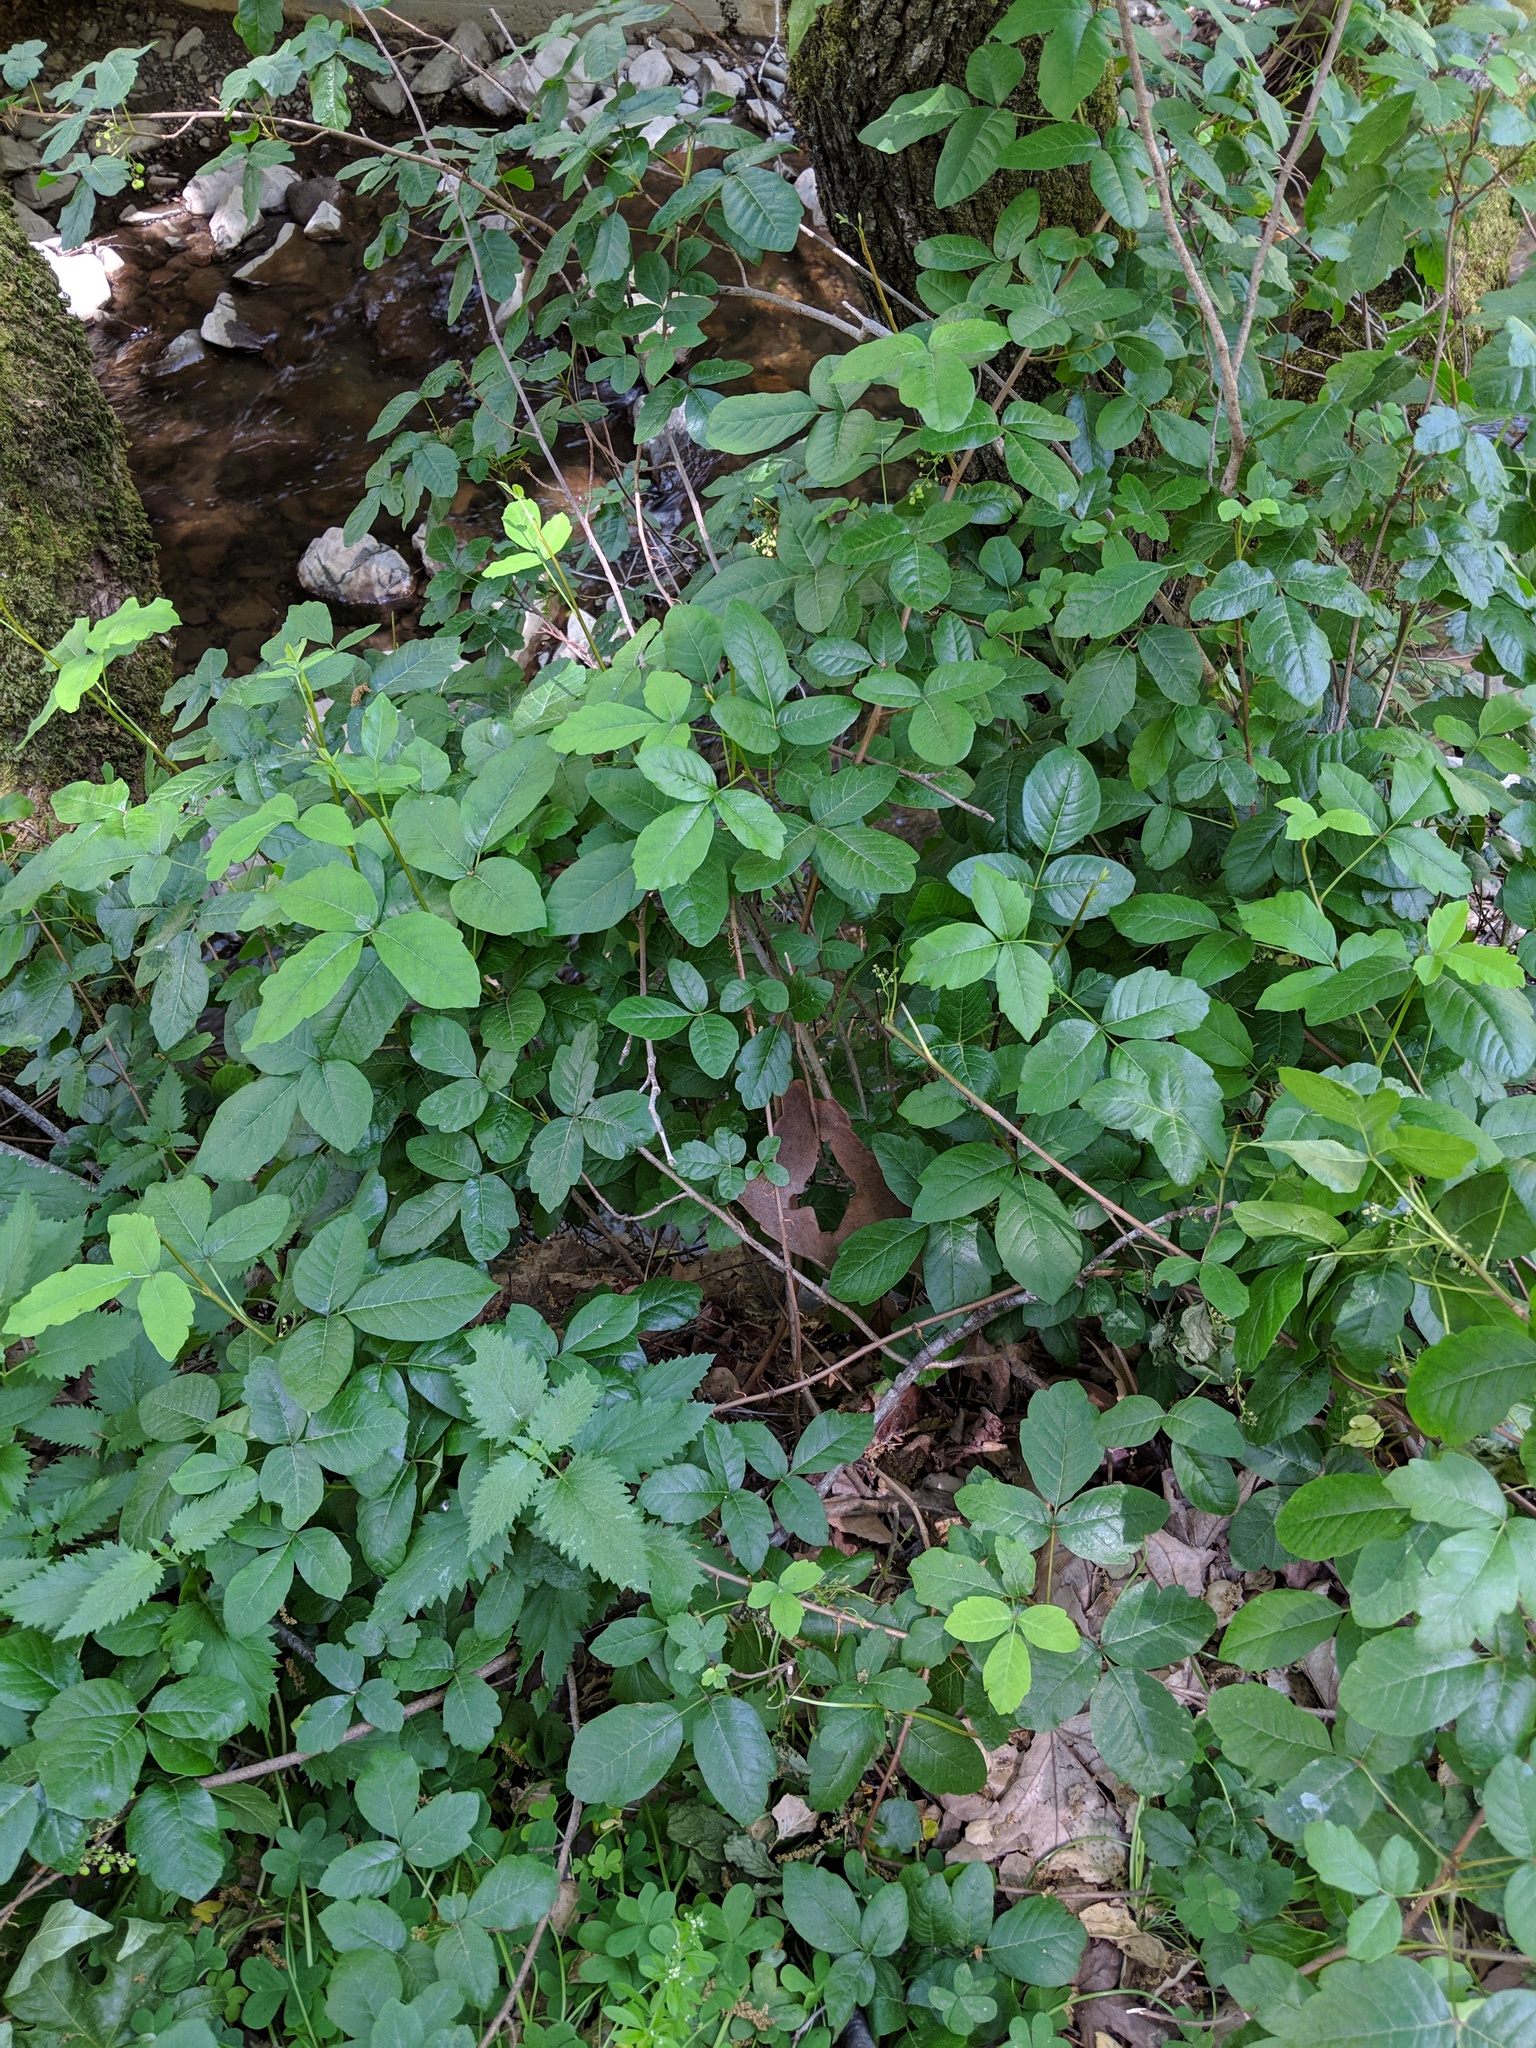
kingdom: Plantae
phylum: Tracheophyta
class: Magnoliopsida
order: Sapindales
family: Anacardiaceae
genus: Toxicodendron
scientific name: Toxicodendron diversilobum
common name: Pacific poison-oak
